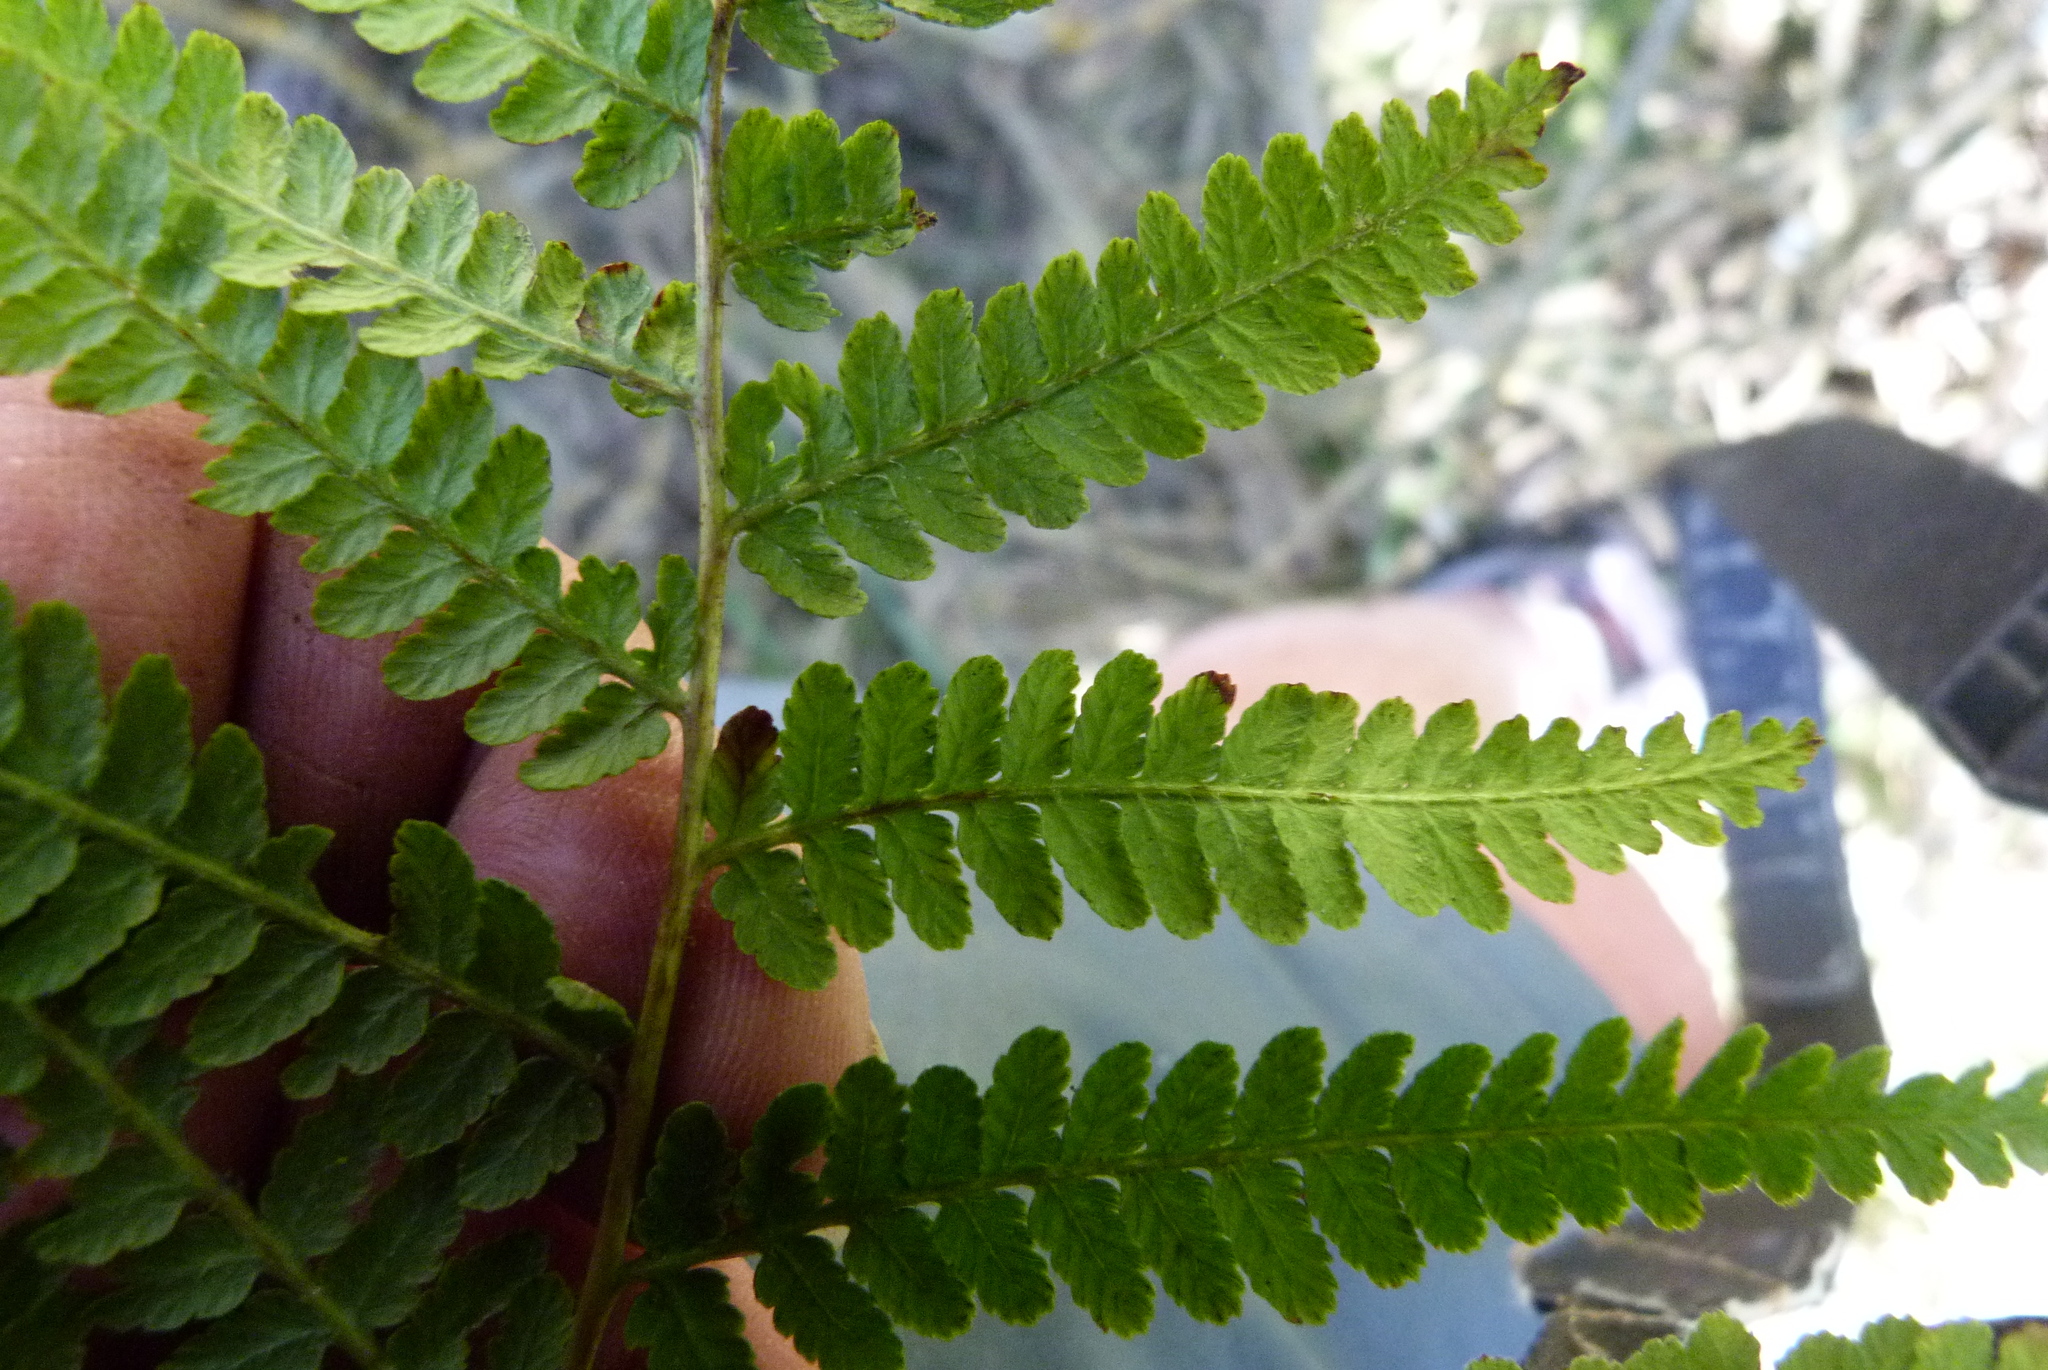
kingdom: Plantae
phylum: Tracheophyta
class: Polypodiopsida
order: Polypodiales
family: Dennstaedtiaceae
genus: Hypolepis
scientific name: Hypolepis ambigua
